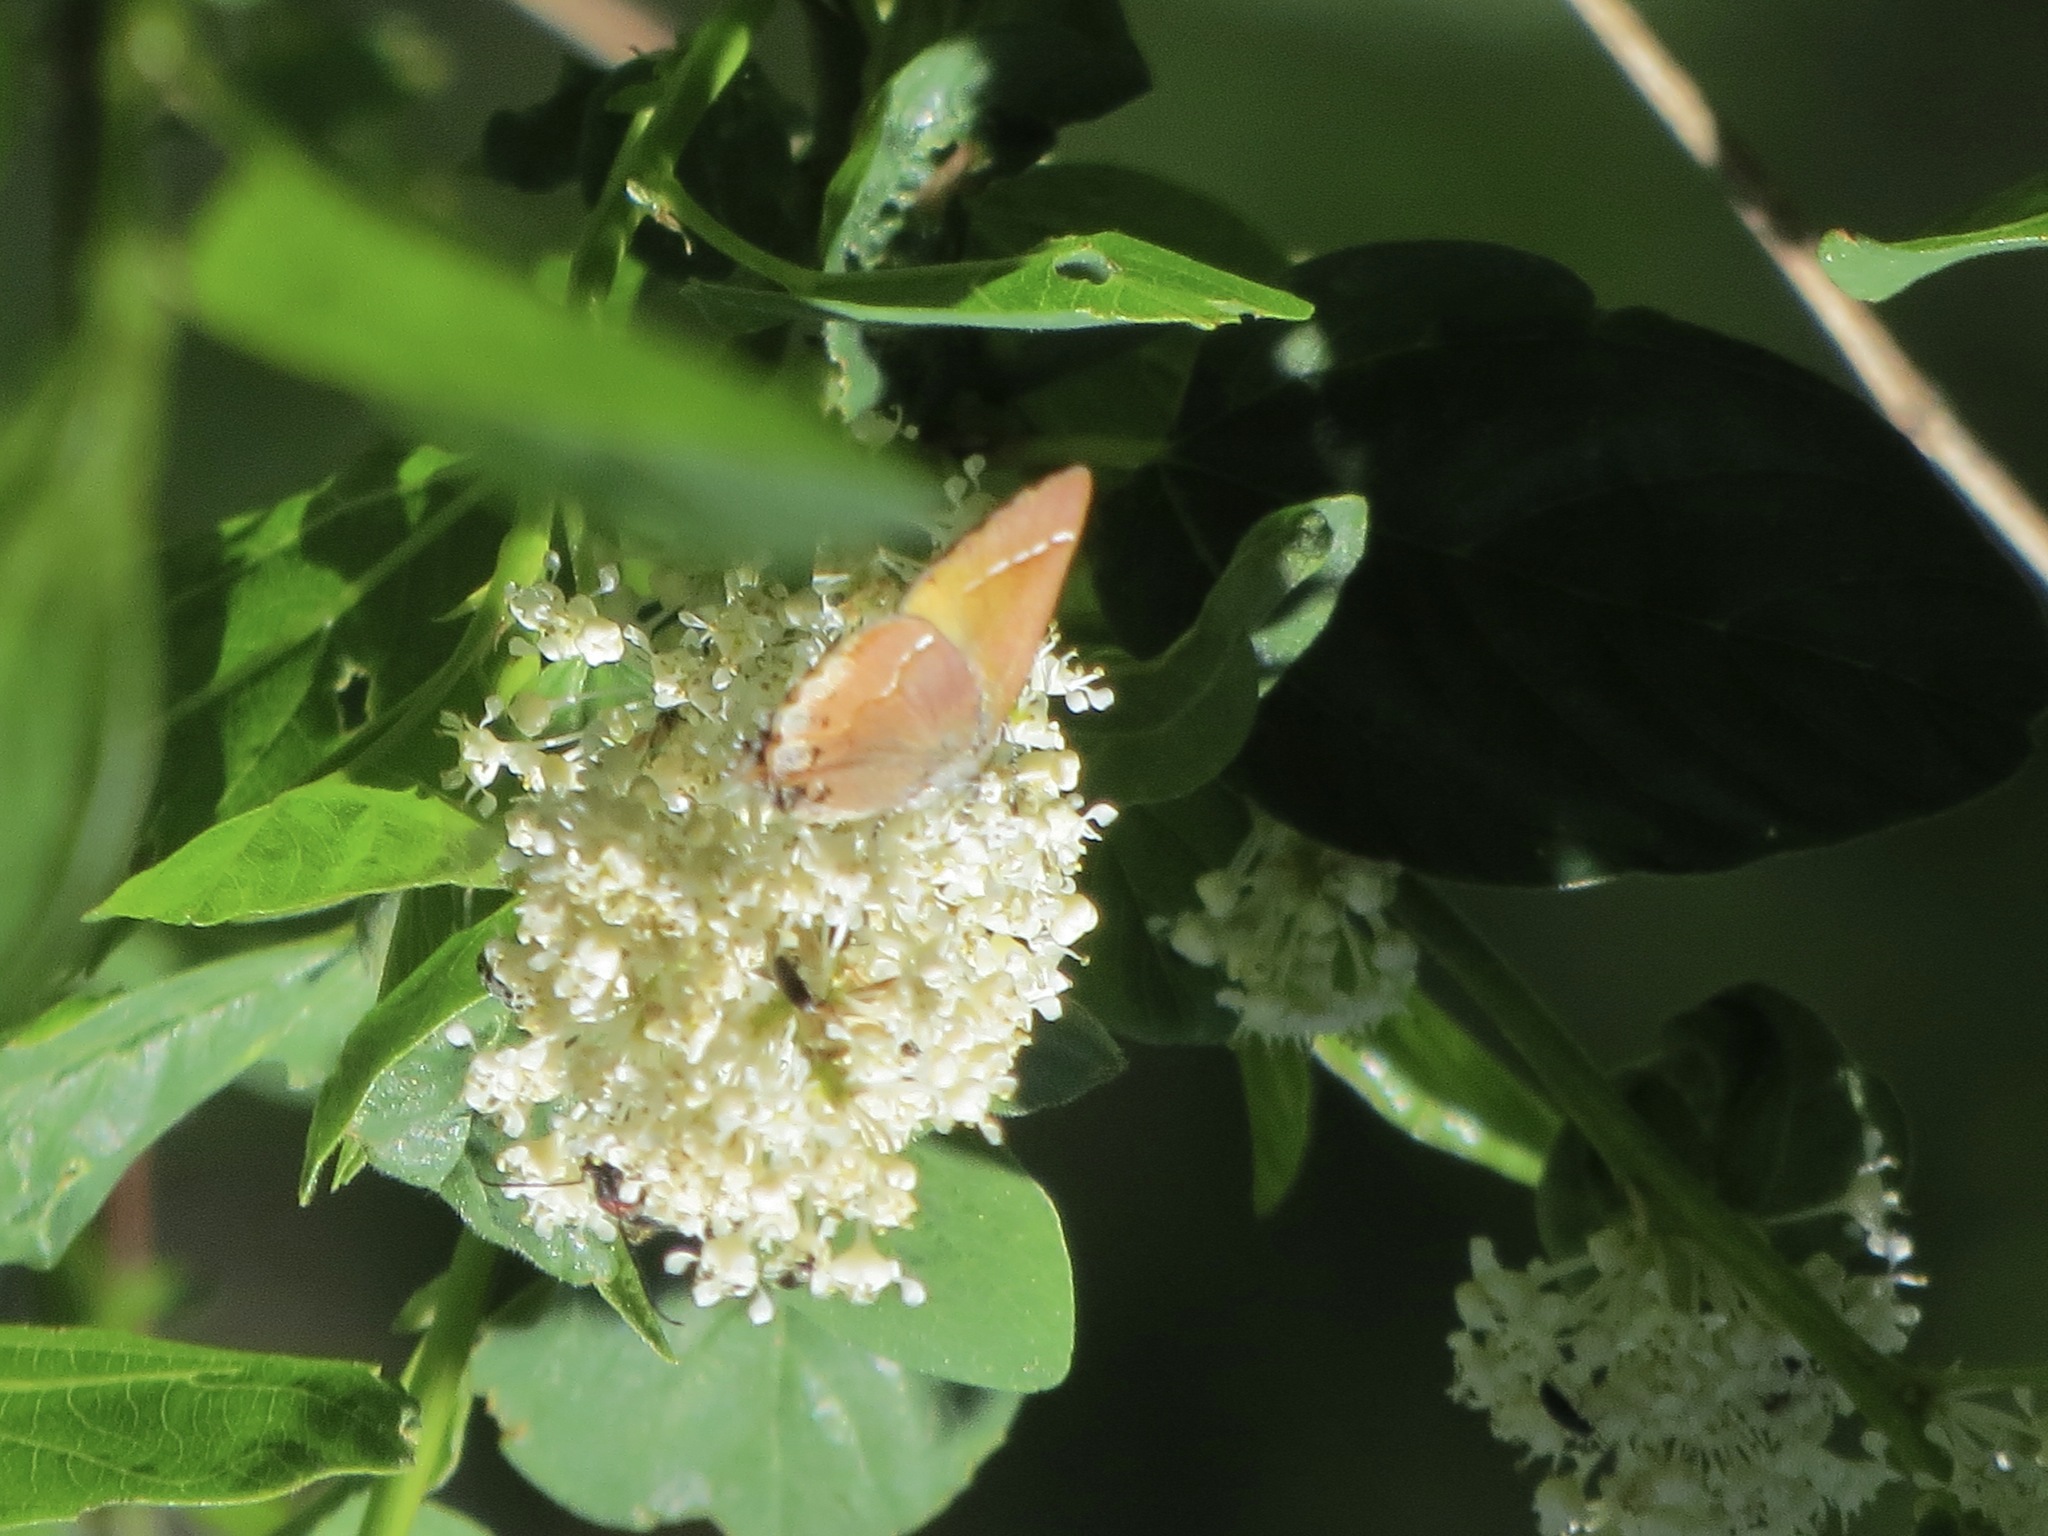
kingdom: Animalia
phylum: Arthropoda
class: Insecta
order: Lepidoptera
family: Lycaenidae
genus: Mitoura
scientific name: Mitoura gryneus
